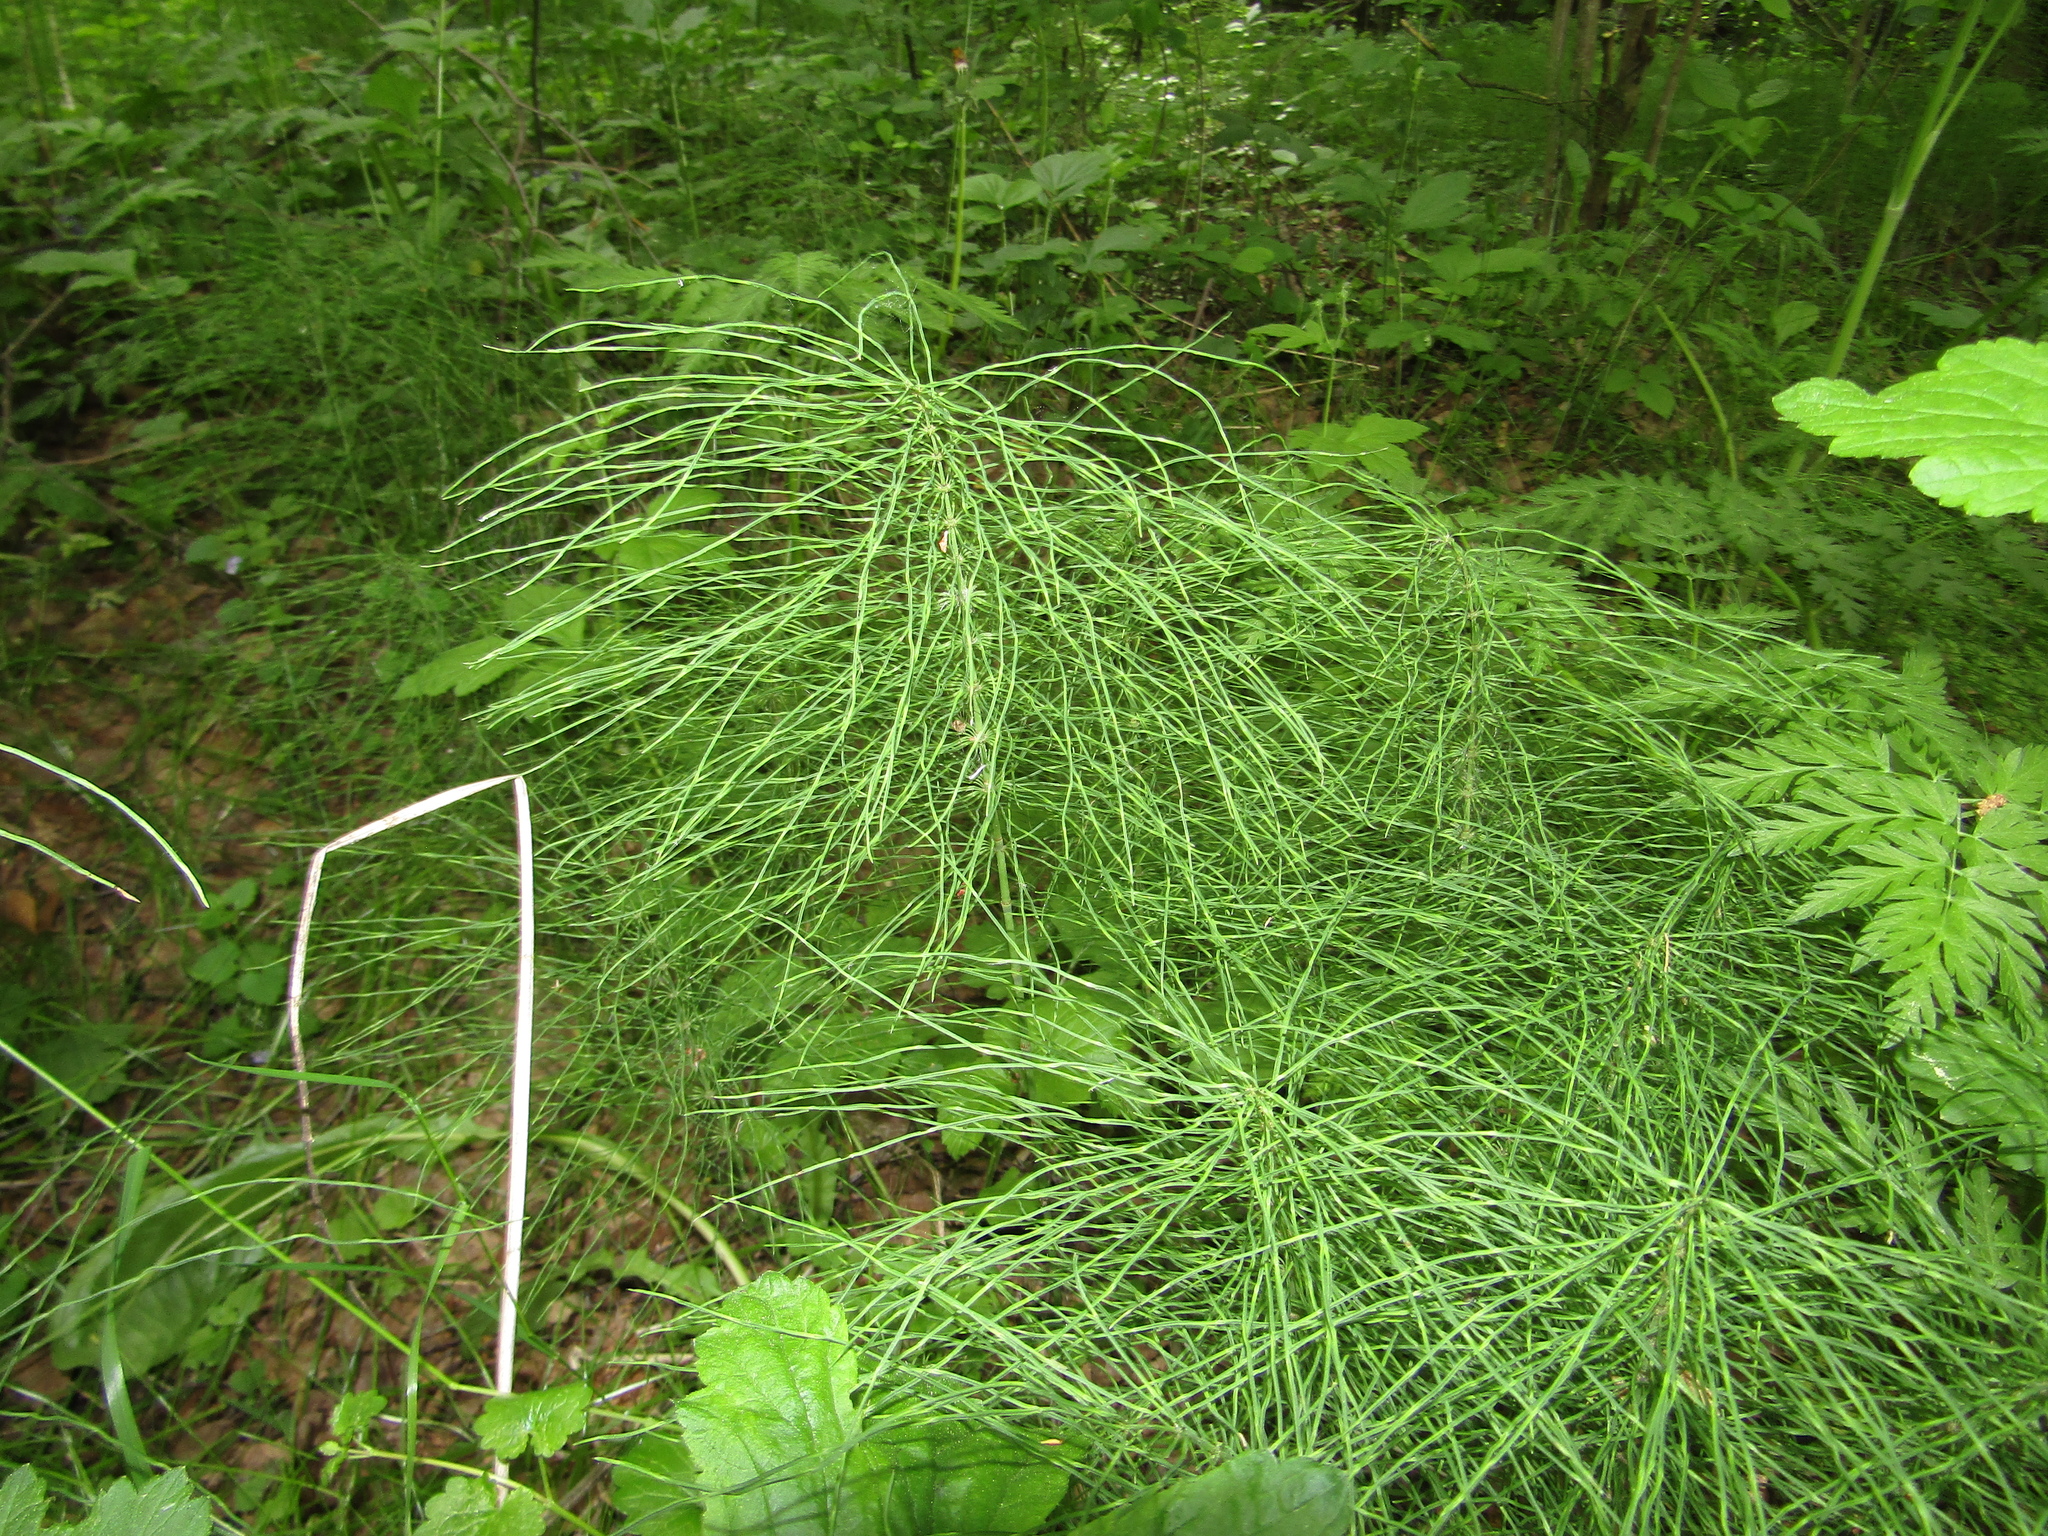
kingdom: Plantae
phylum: Tracheophyta
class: Polypodiopsida
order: Equisetales
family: Equisetaceae
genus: Equisetum
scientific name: Equisetum pratense
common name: Meadow horsetail
